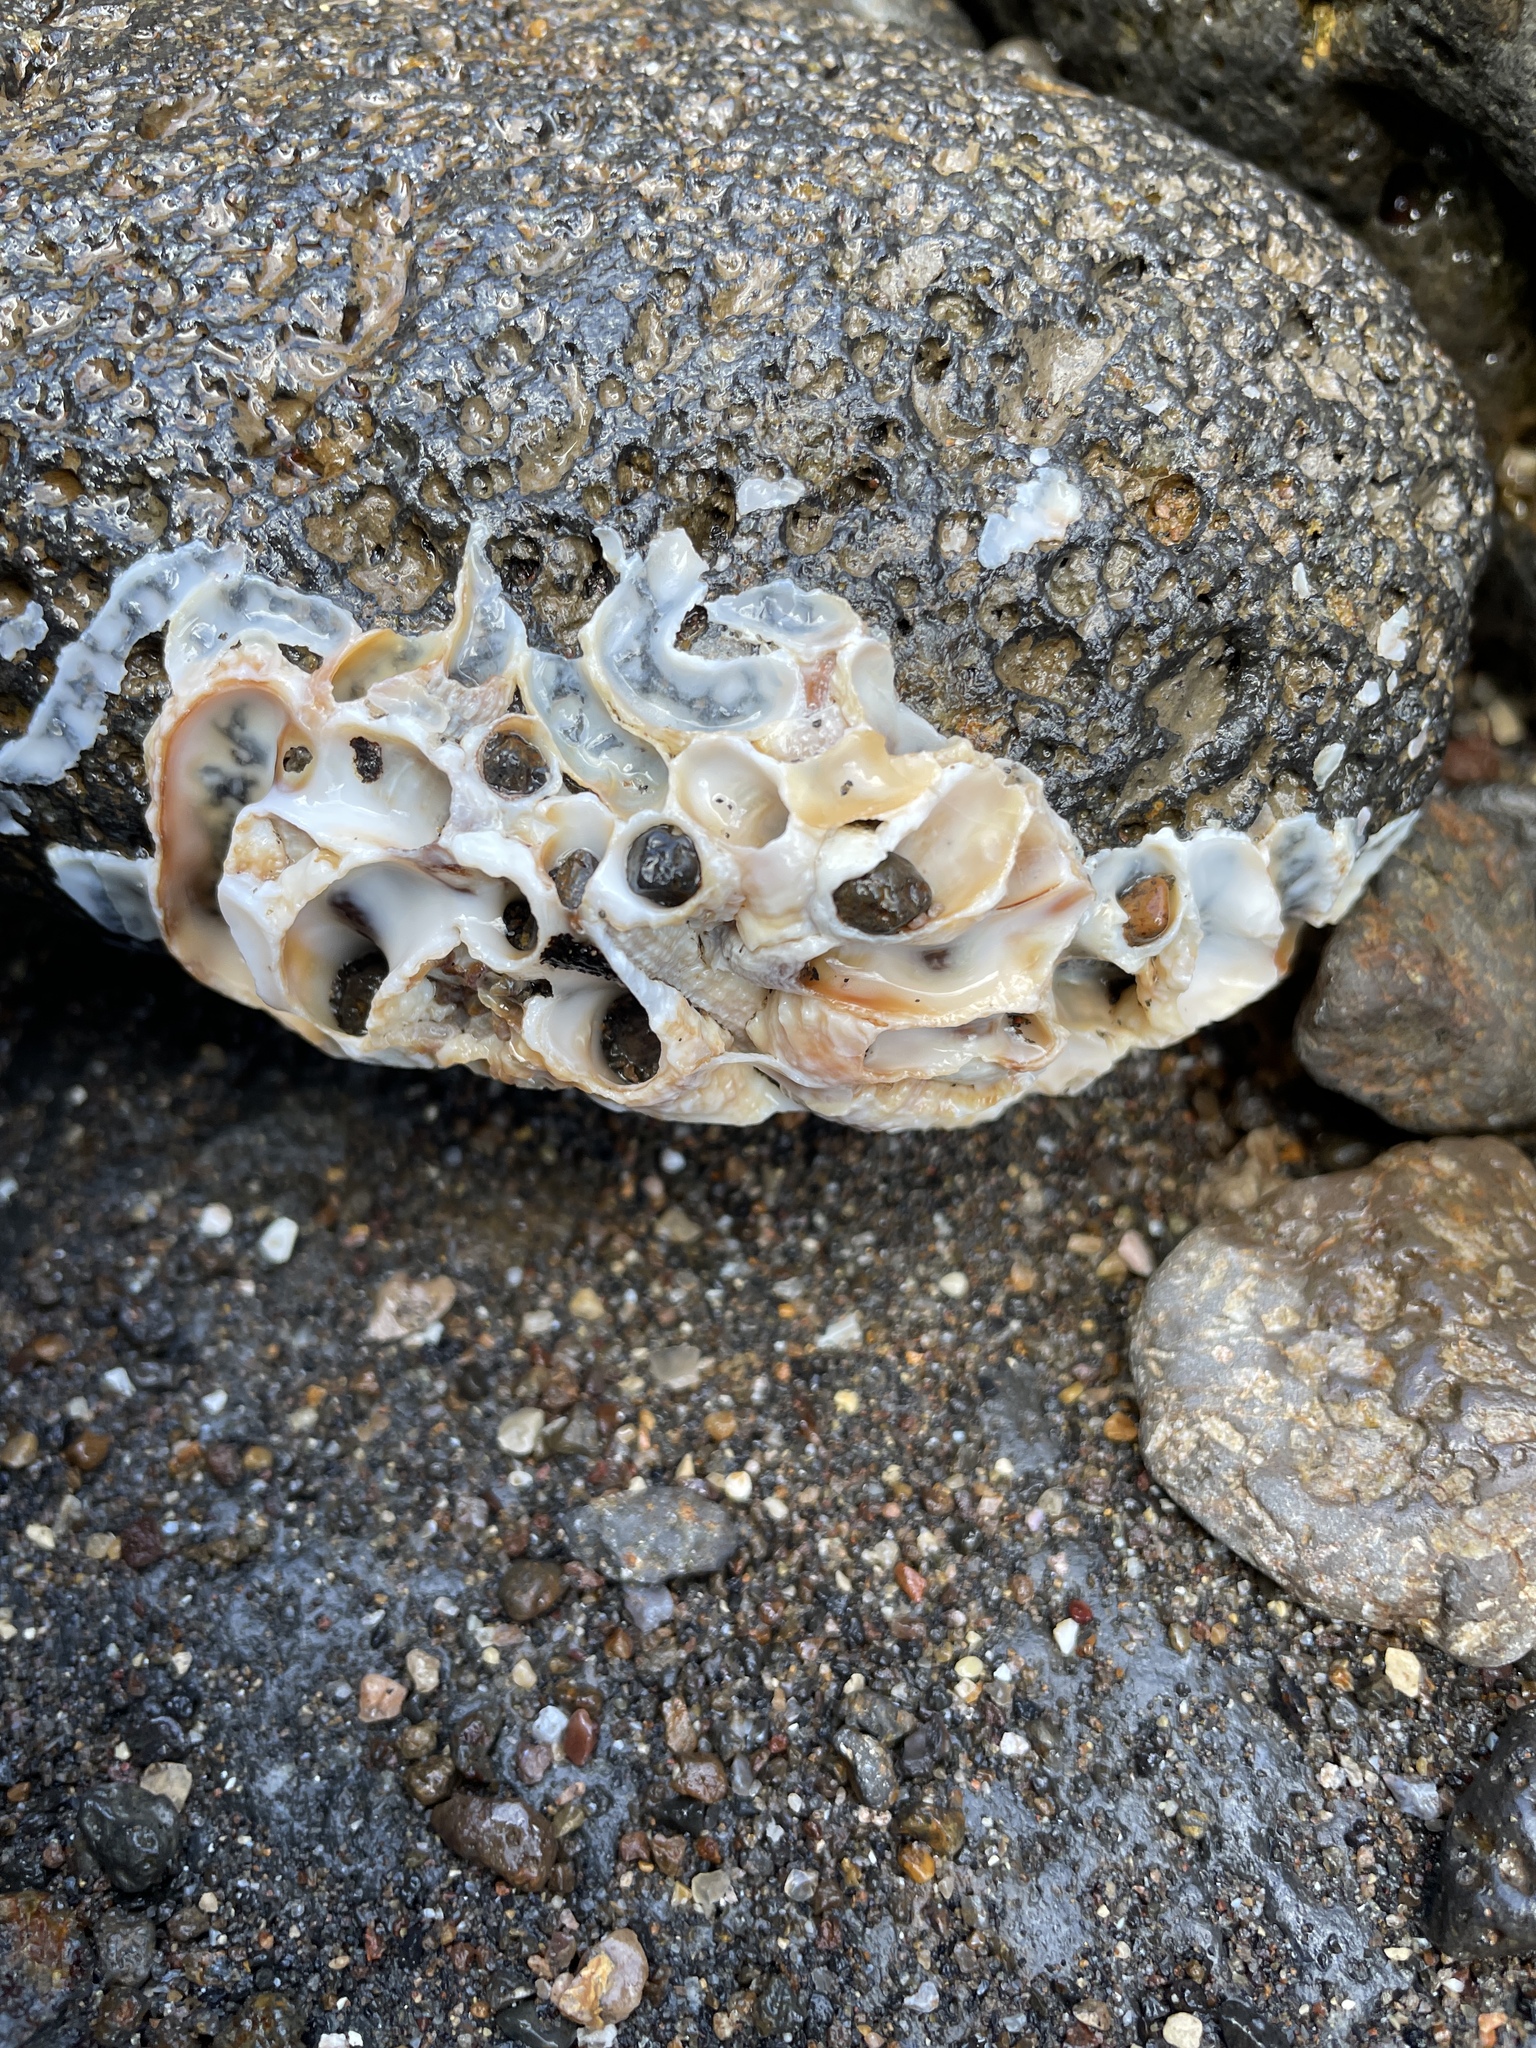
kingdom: Animalia
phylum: Mollusca
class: Gastropoda
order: Littorinimorpha
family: Vermetidae
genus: Thylacodes
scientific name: Thylacodes squamigerus
